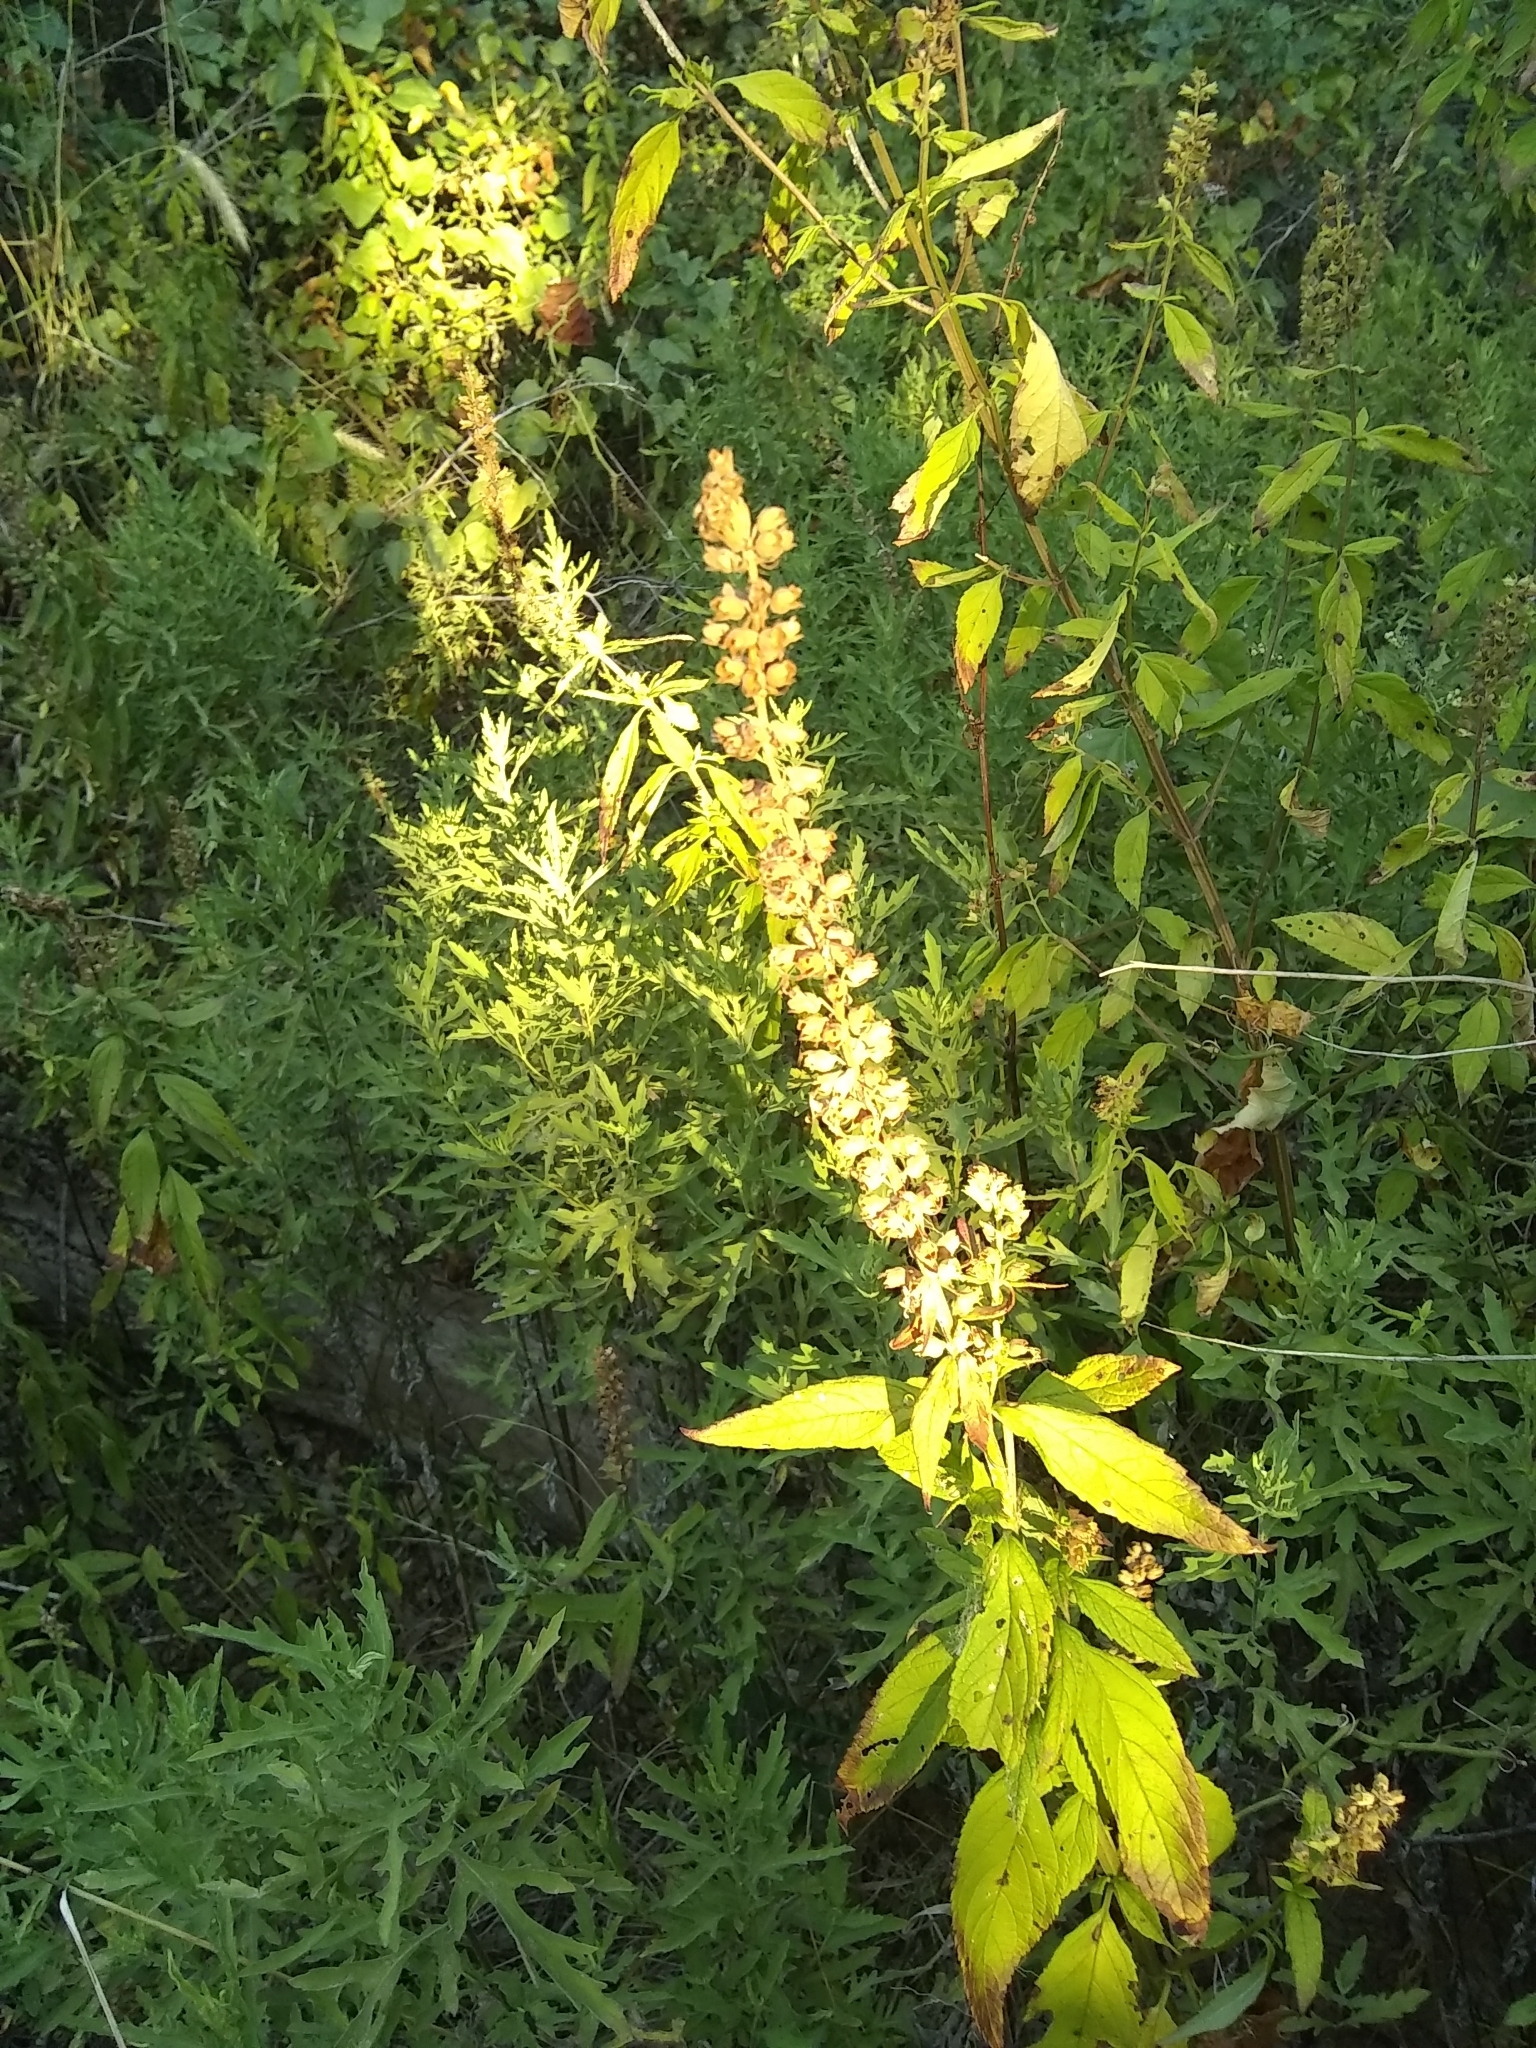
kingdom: Plantae
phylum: Tracheophyta
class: Magnoliopsida
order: Lamiales
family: Lamiaceae
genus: Teucrium
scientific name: Teucrium canadense
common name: American germander
